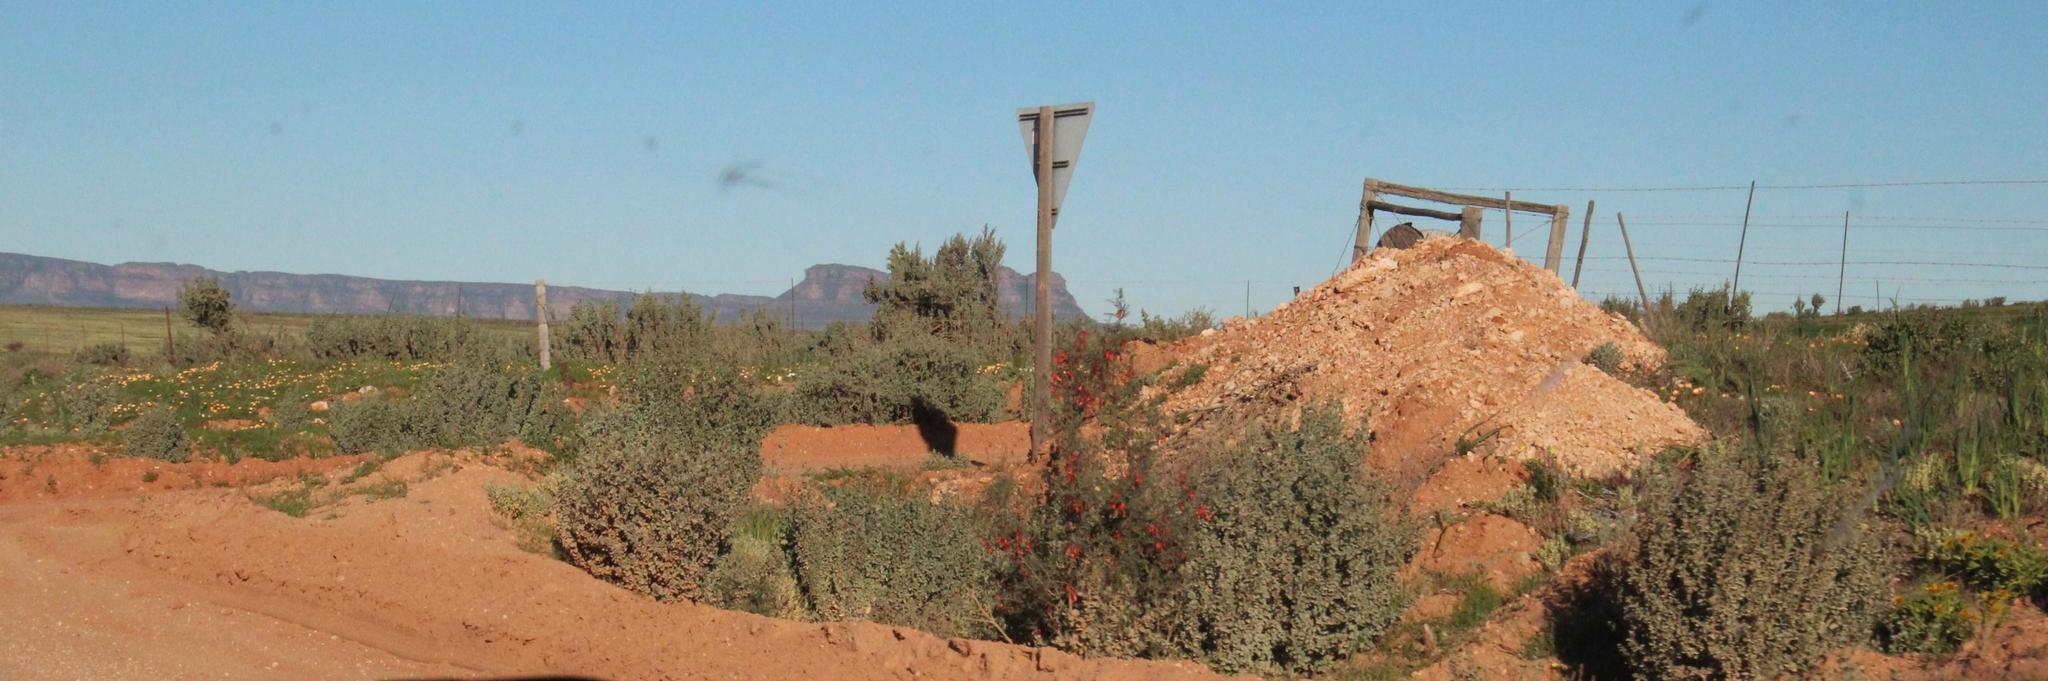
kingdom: Plantae
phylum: Tracheophyta
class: Magnoliopsida
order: Fabales
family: Fabaceae
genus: Lessertia
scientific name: Lessertia frutescens
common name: Balloon-pea
